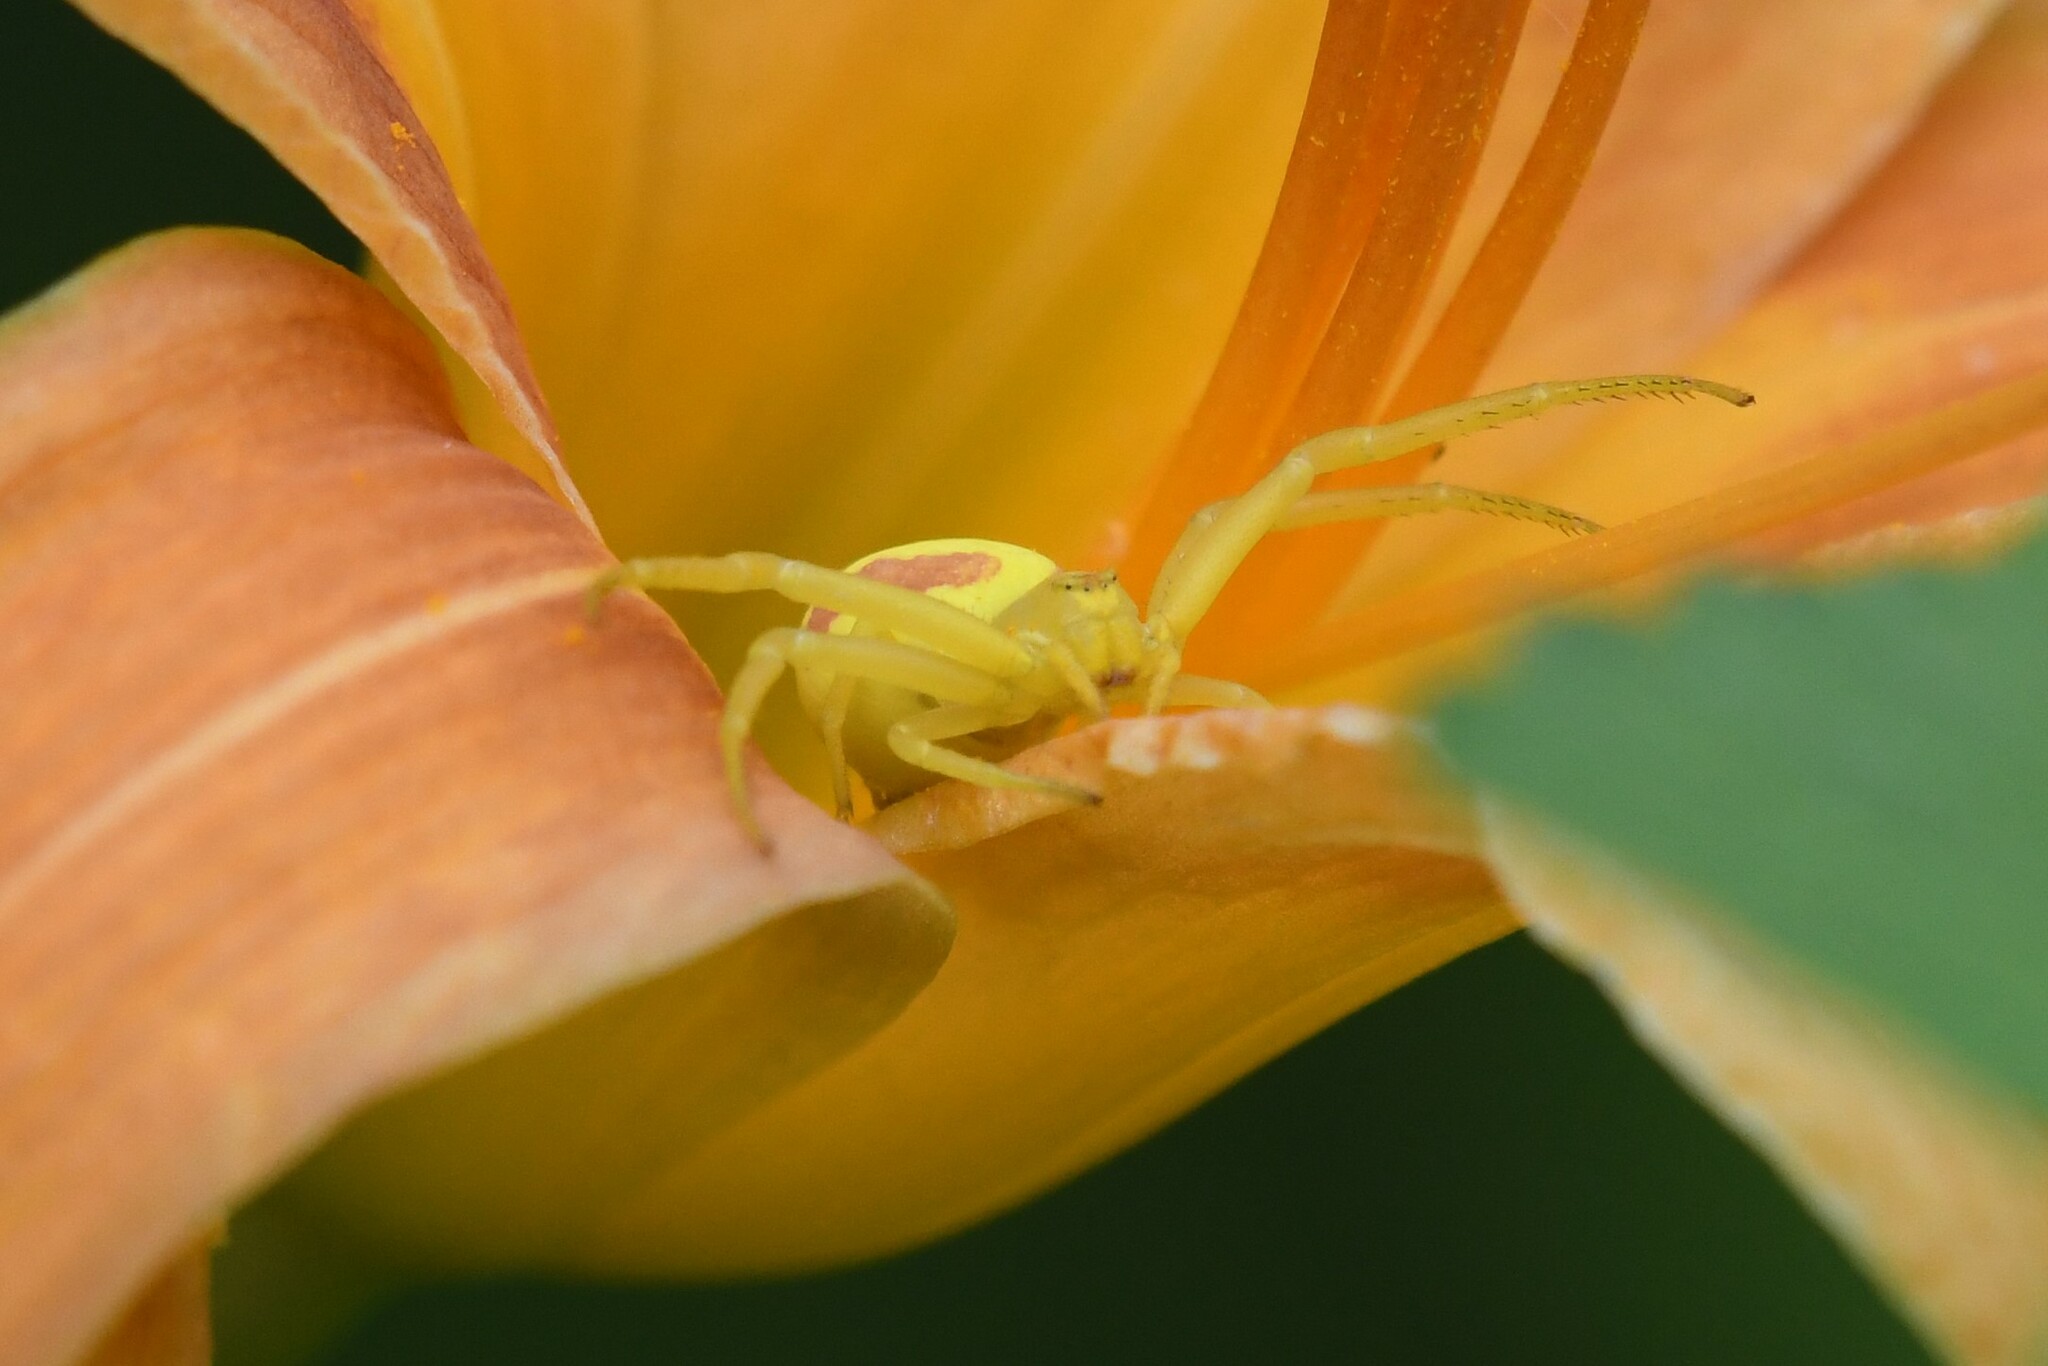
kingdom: Animalia
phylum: Arthropoda
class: Arachnida
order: Araneae
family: Thomisidae
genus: Misumena
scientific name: Misumena vatia
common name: Goldenrod crab spider
